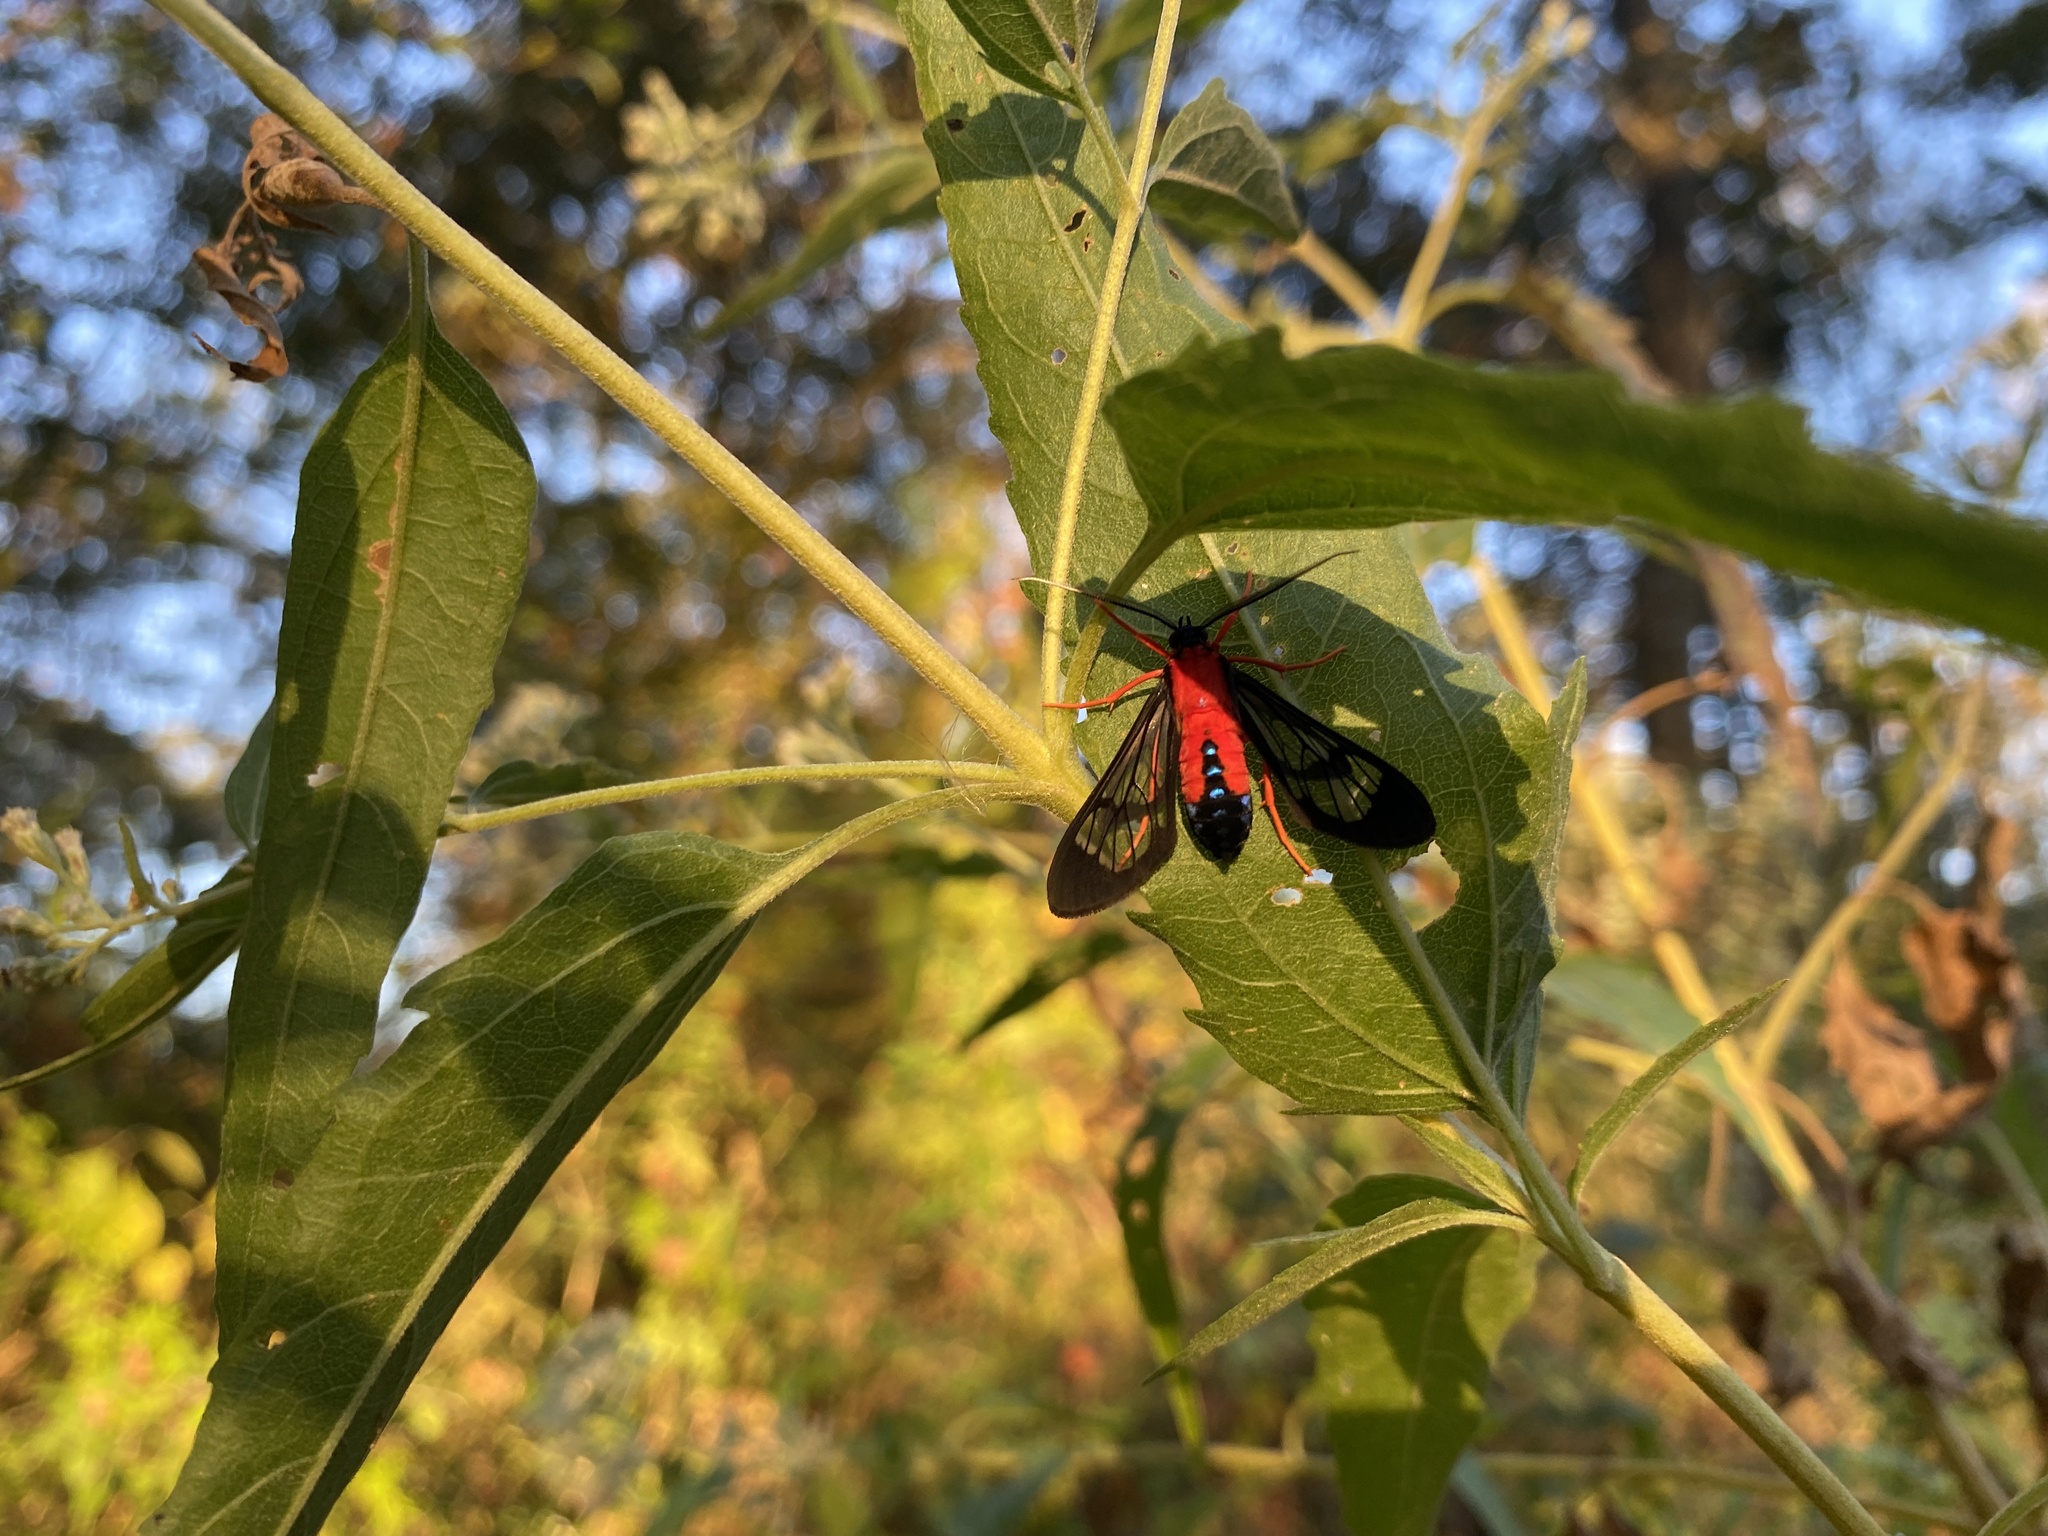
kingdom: Animalia
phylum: Arthropoda
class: Insecta
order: Lepidoptera
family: Erebidae
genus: Cosmosoma
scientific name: Cosmosoma myrodora
